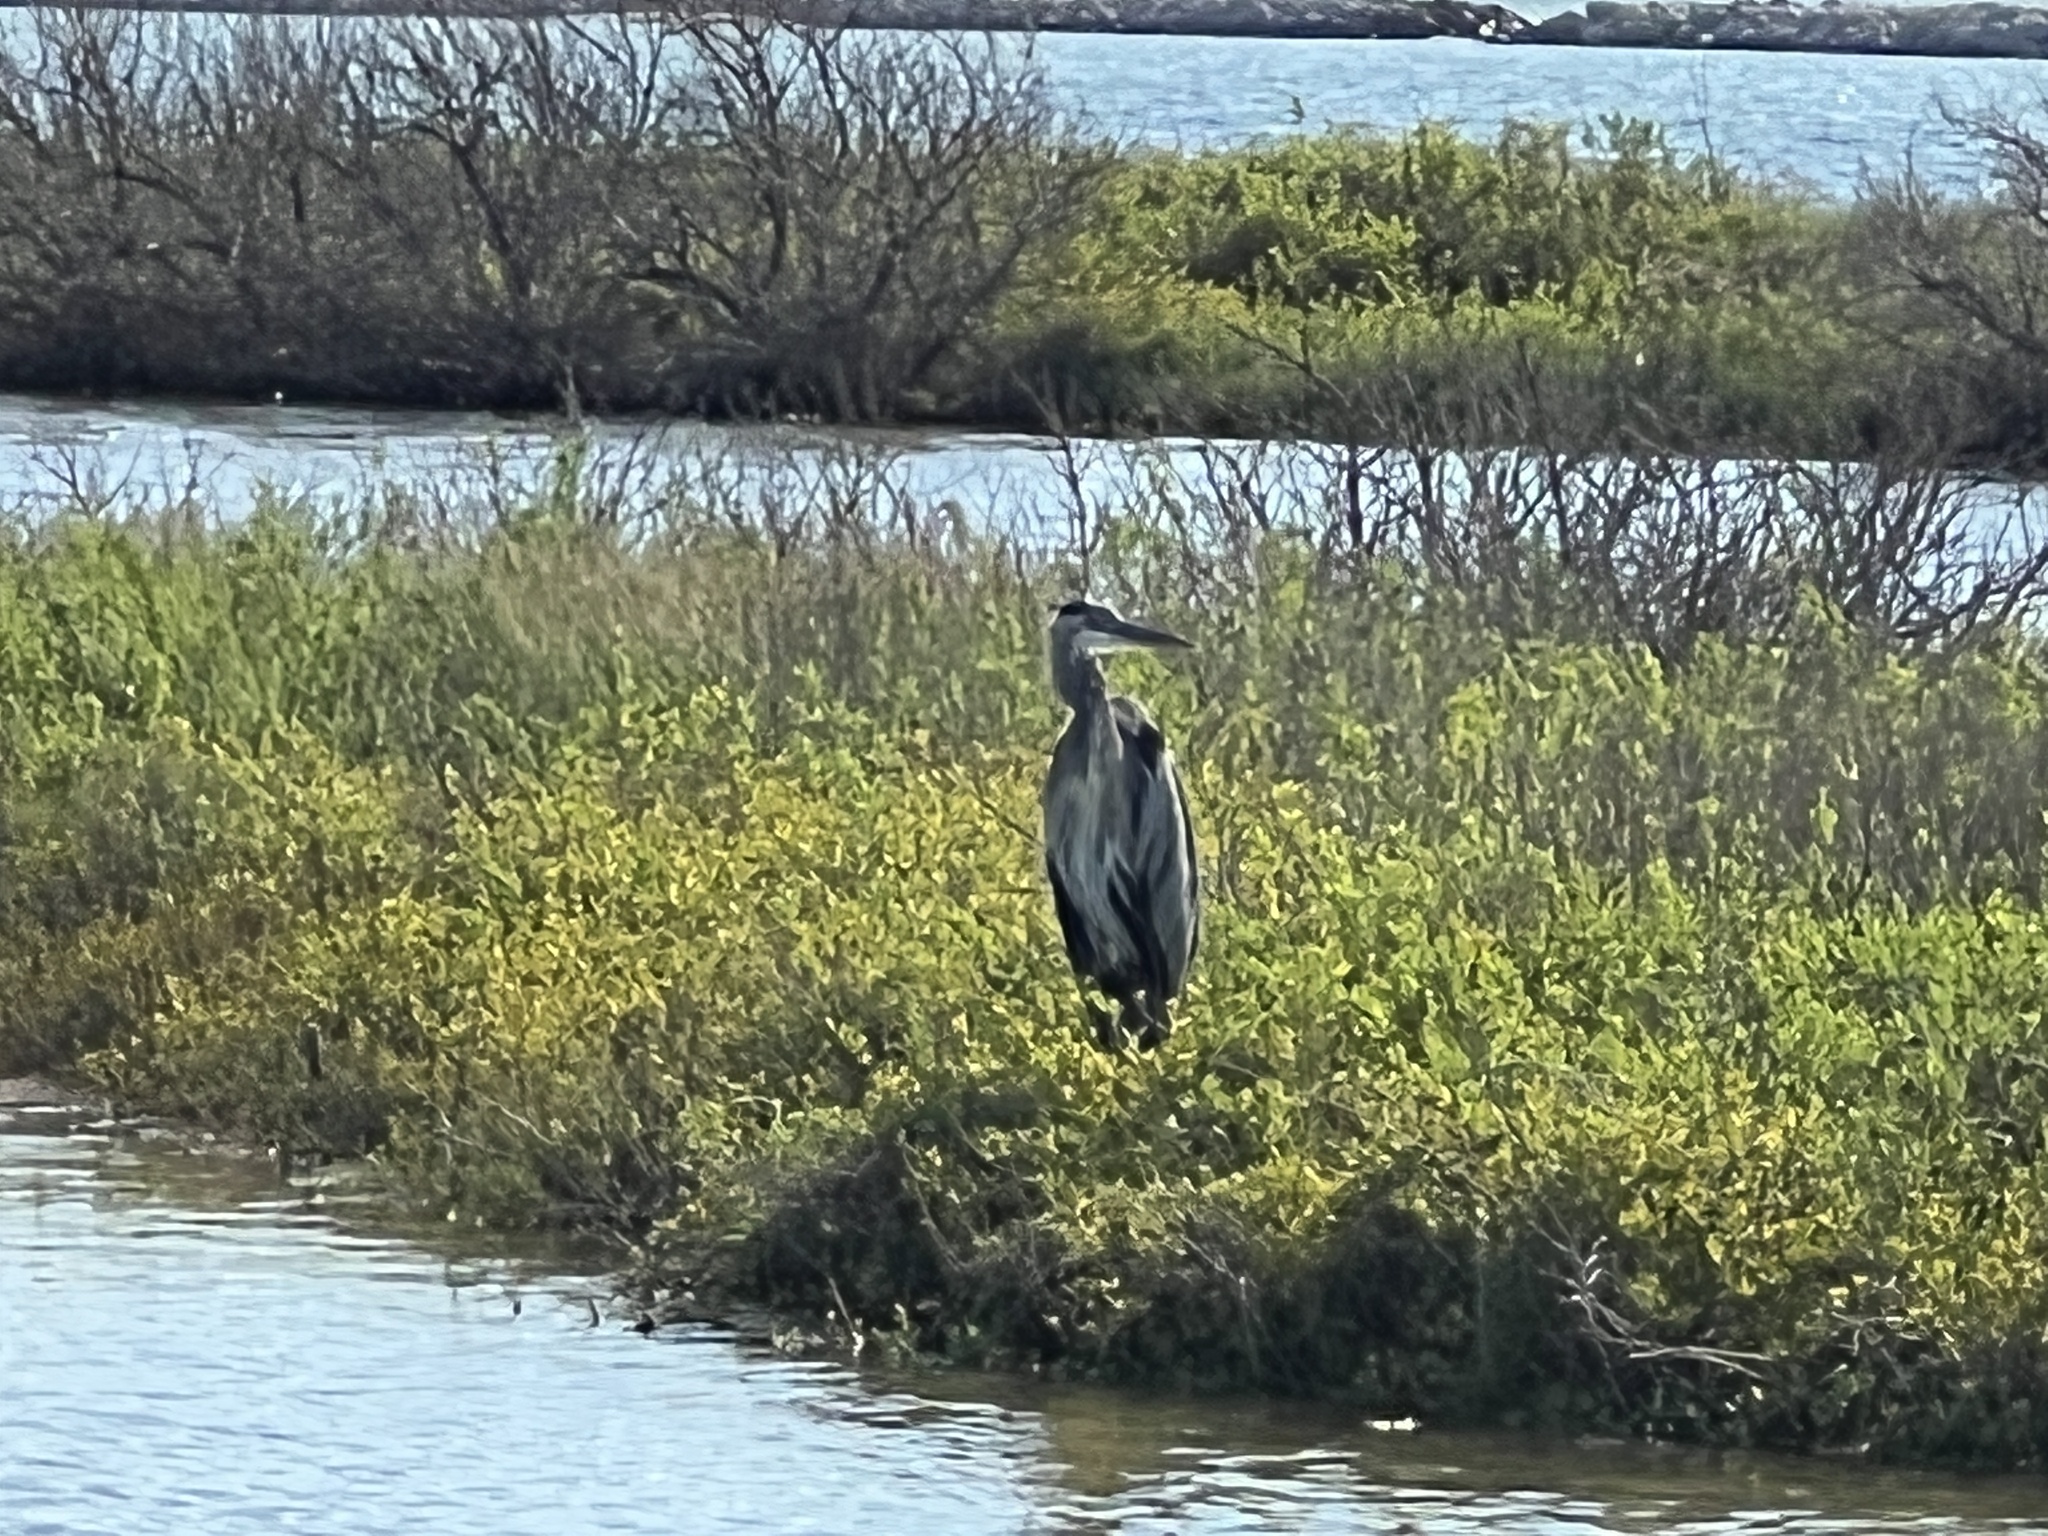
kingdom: Animalia
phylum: Chordata
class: Aves
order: Pelecaniformes
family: Ardeidae
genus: Ardea
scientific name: Ardea herodias
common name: Great blue heron
